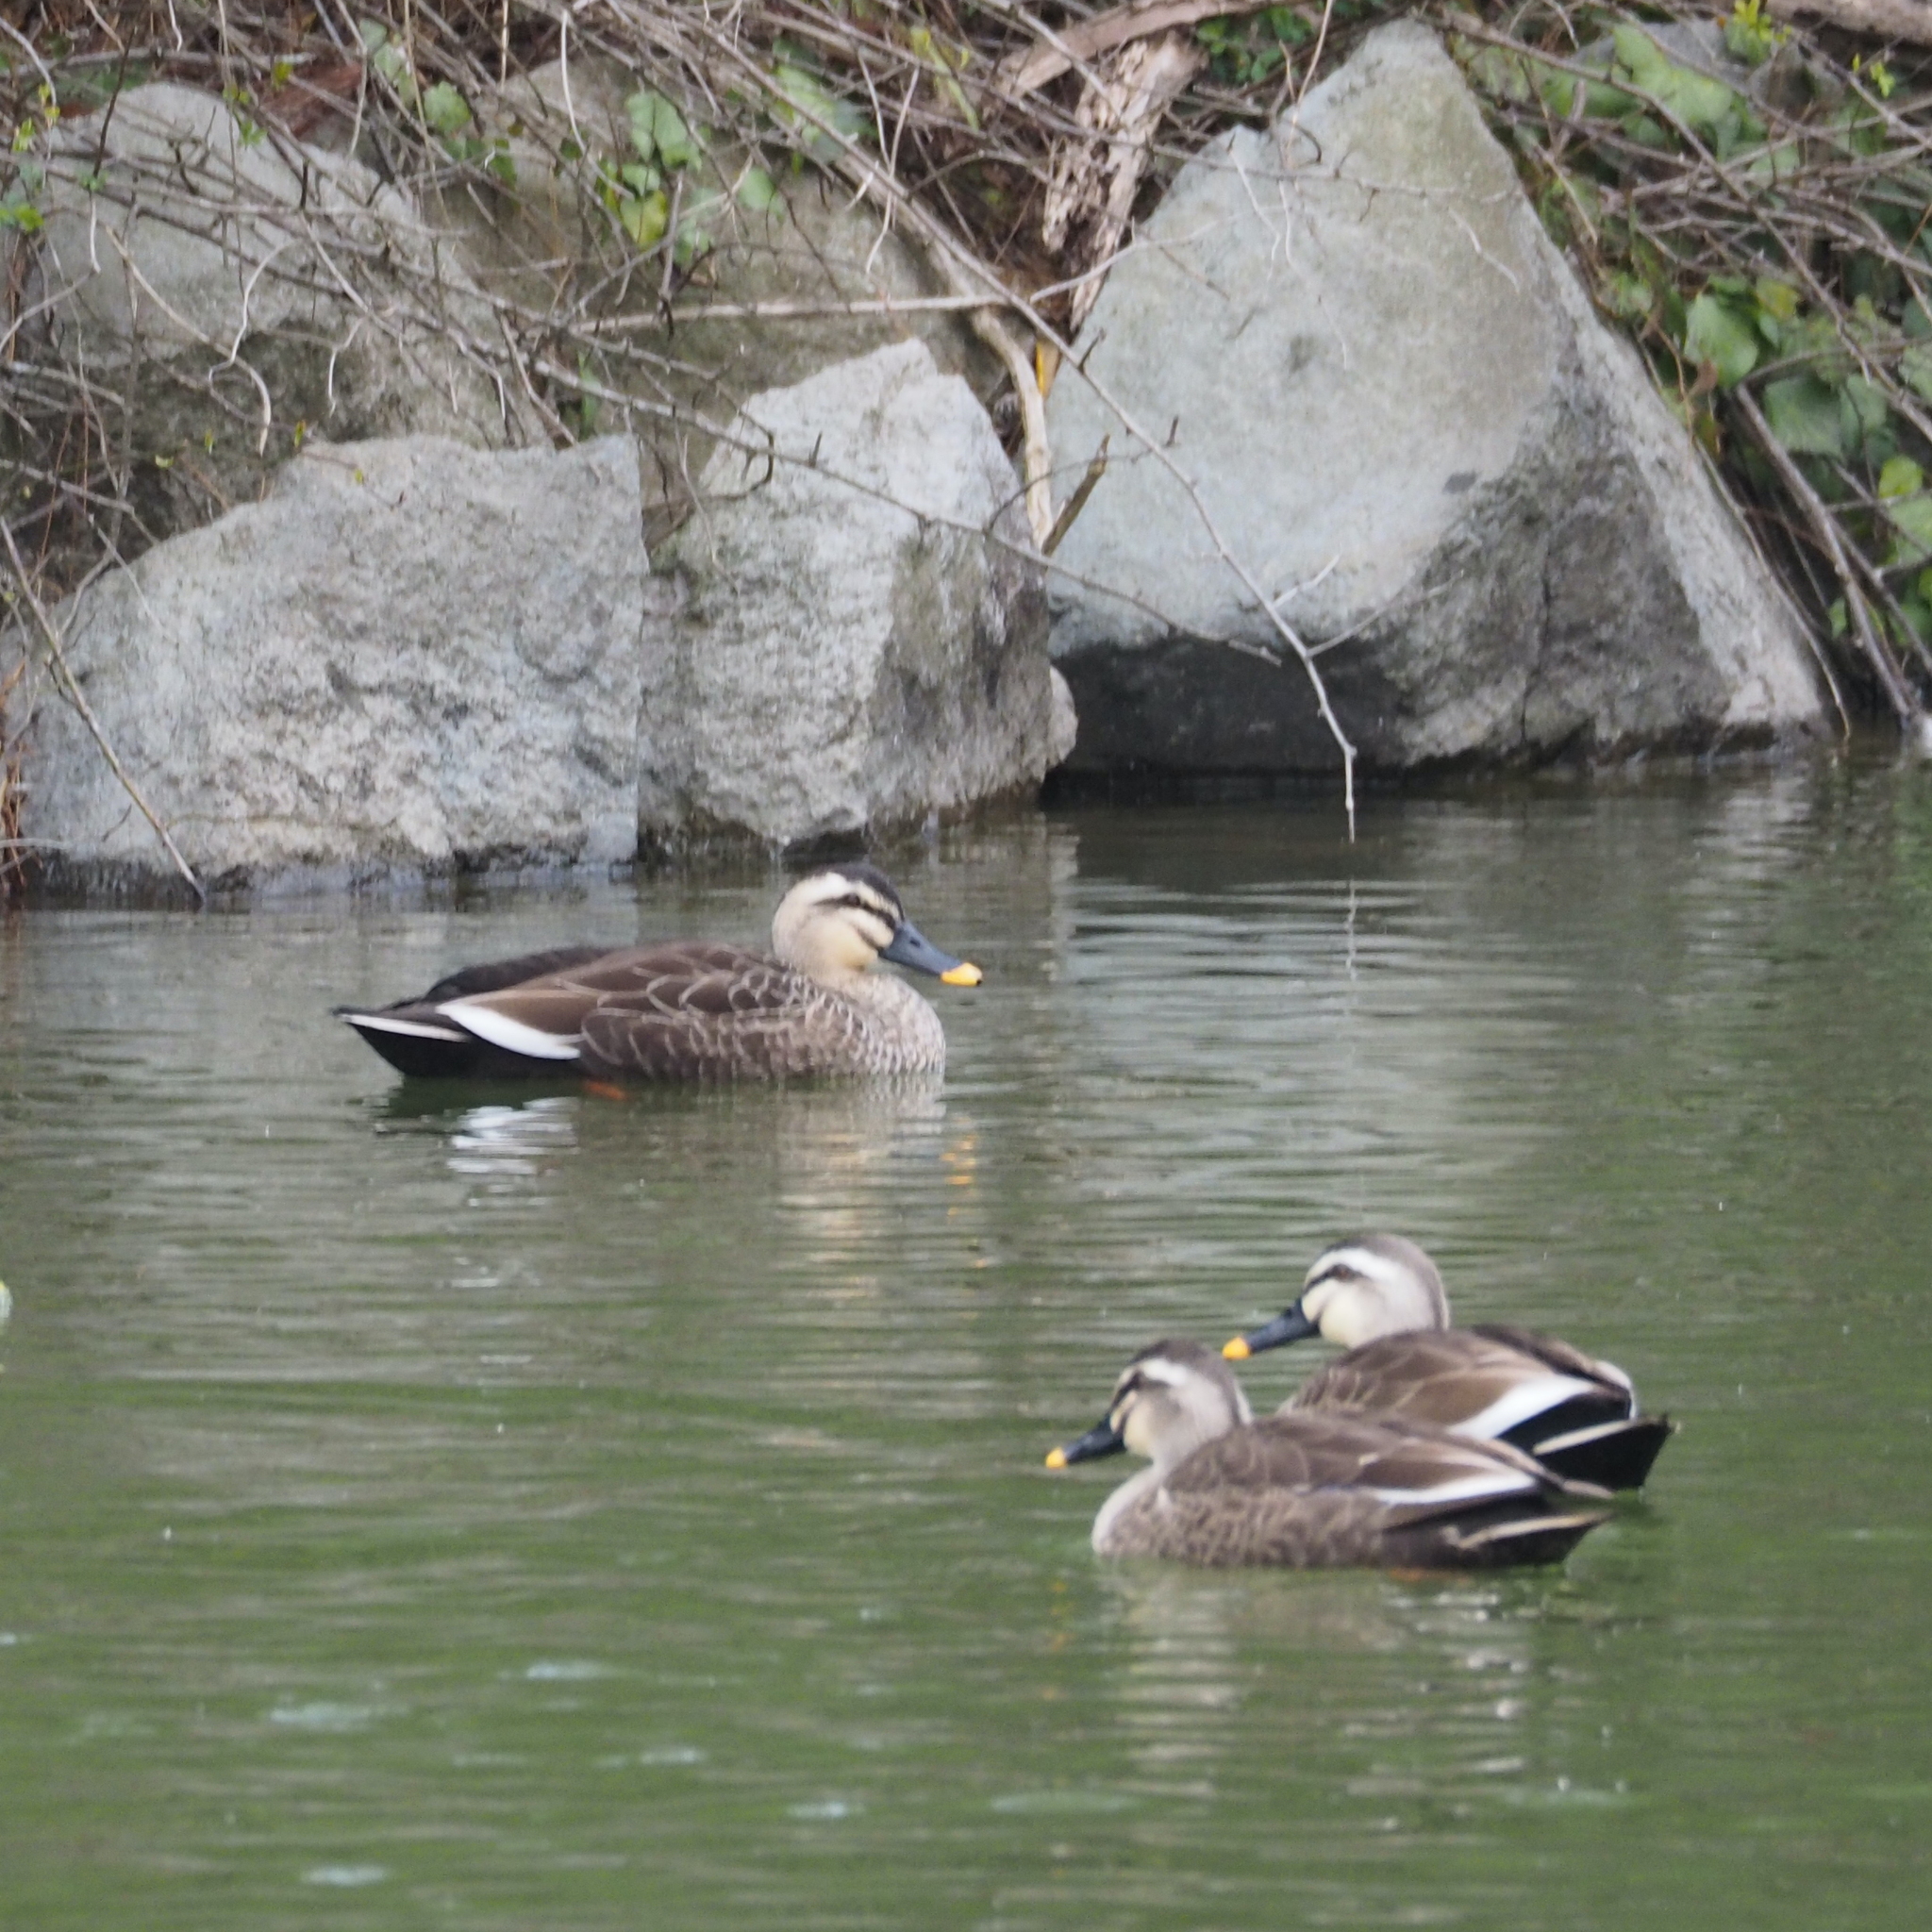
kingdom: Animalia
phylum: Chordata
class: Aves
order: Anseriformes
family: Anatidae
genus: Anas
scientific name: Anas zonorhyncha
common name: Eastern spot-billed duck
